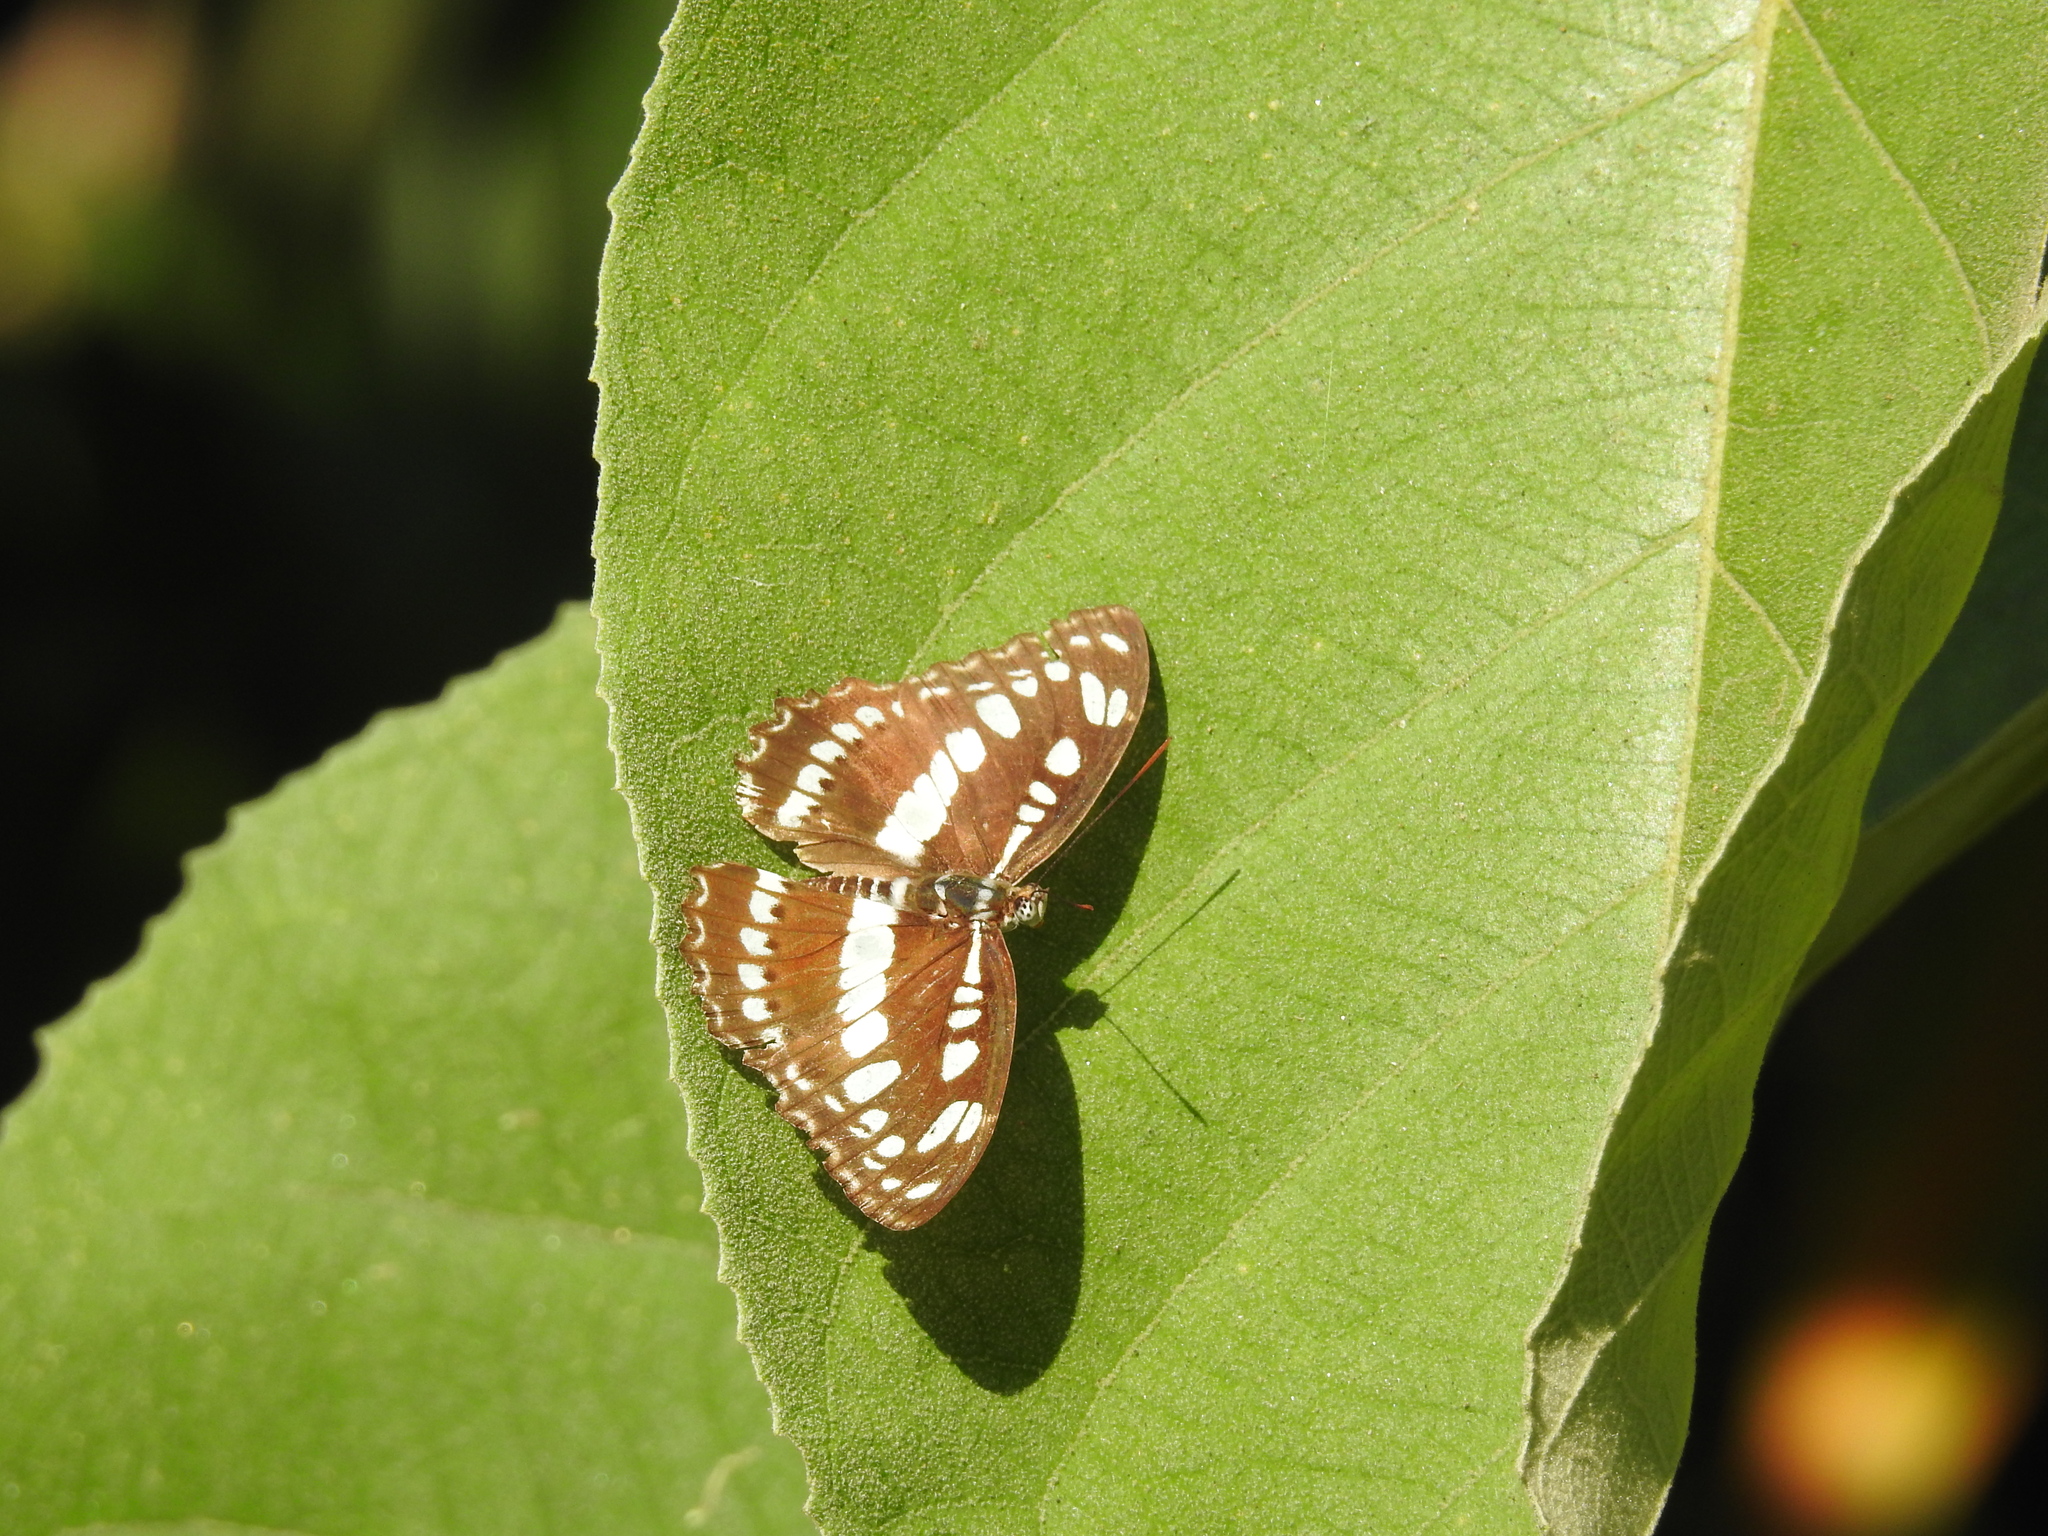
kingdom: Animalia
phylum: Arthropoda
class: Insecta
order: Lepidoptera
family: Nymphalidae
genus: Parathyma
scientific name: Parathyma perius
